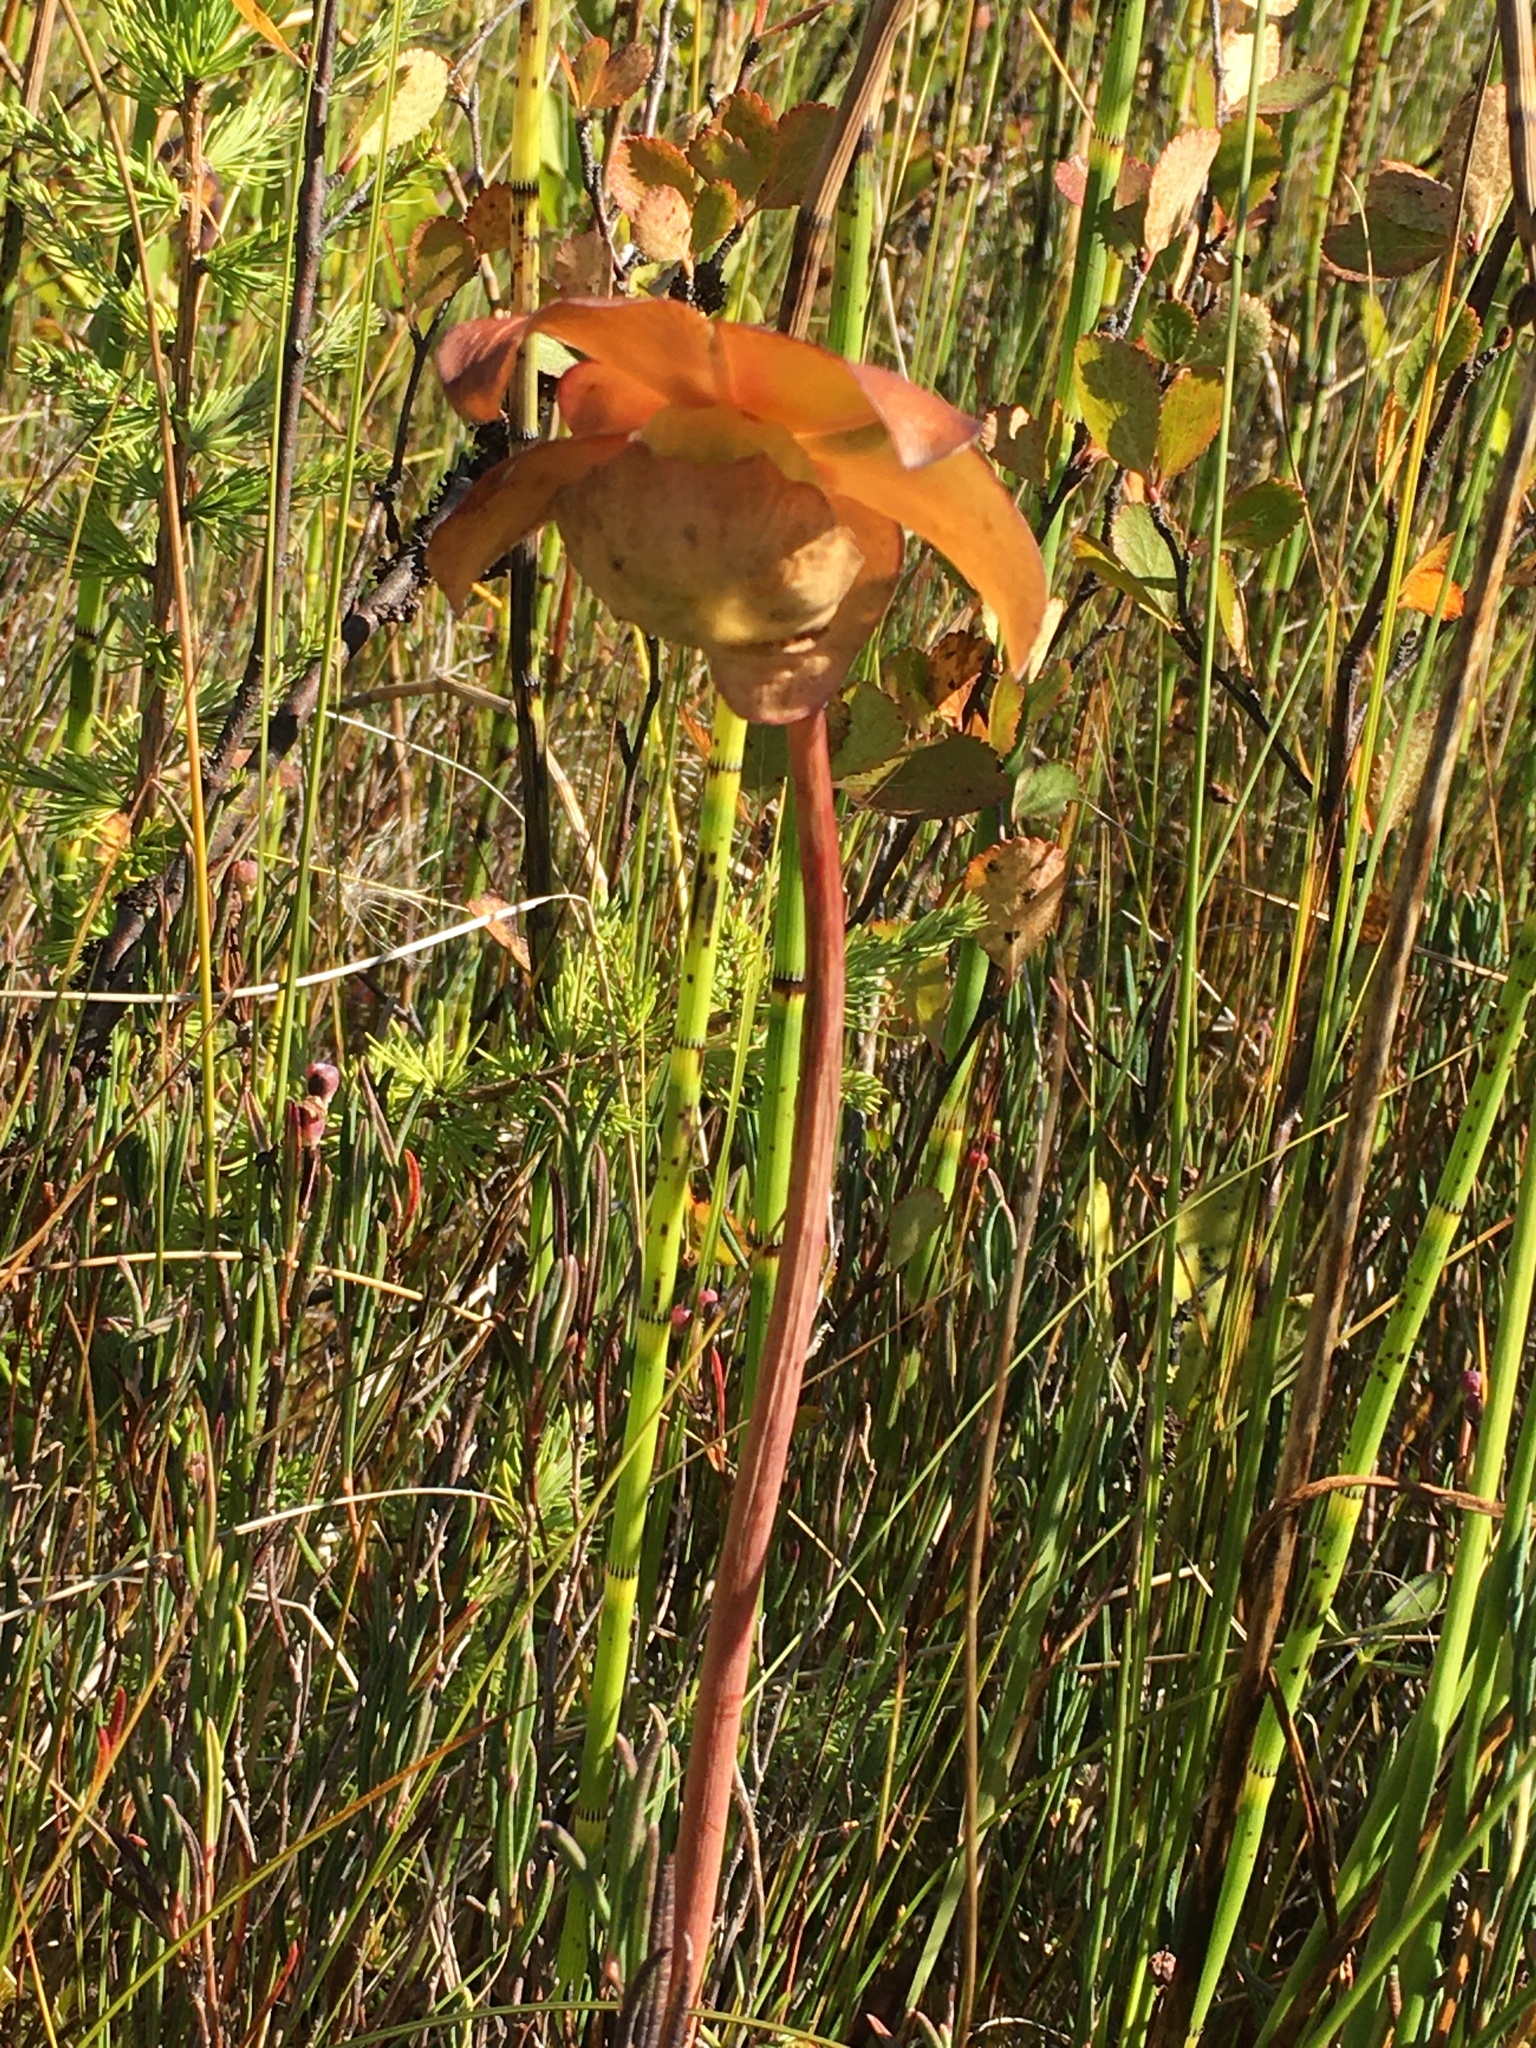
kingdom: Plantae
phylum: Tracheophyta
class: Magnoliopsida
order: Ericales
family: Sarraceniaceae
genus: Sarracenia
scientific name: Sarracenia purpurea
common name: Pitcherplant
